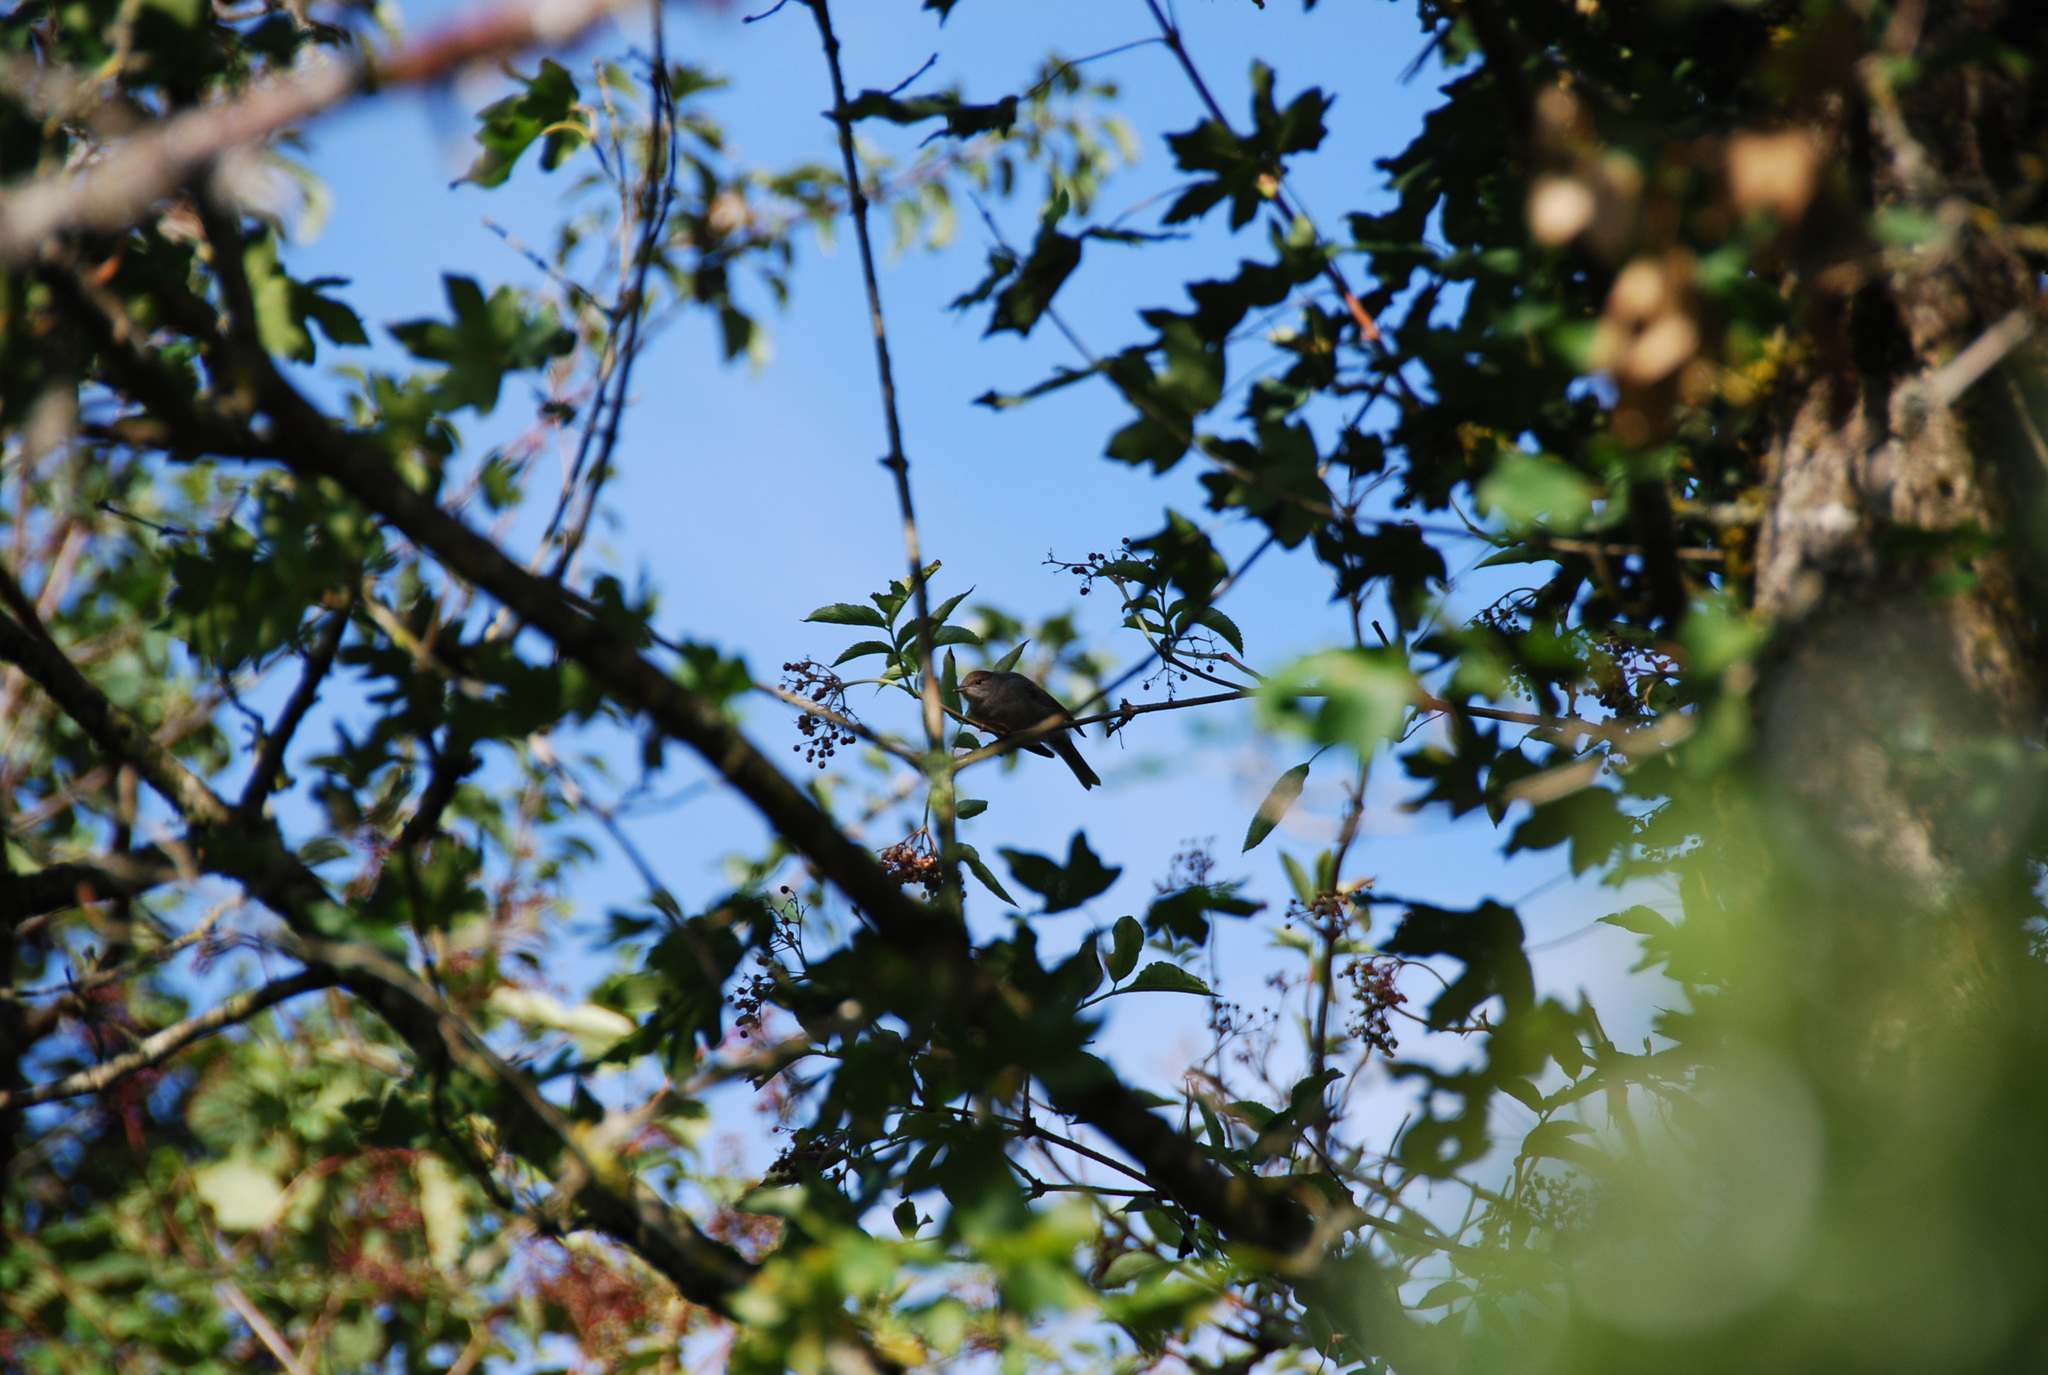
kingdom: Animalia
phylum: Chordata
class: Aves
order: Passeriformes
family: Sylviidae
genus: Sylvia
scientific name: Sylvia atricapilla
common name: Eurasian blackcap
